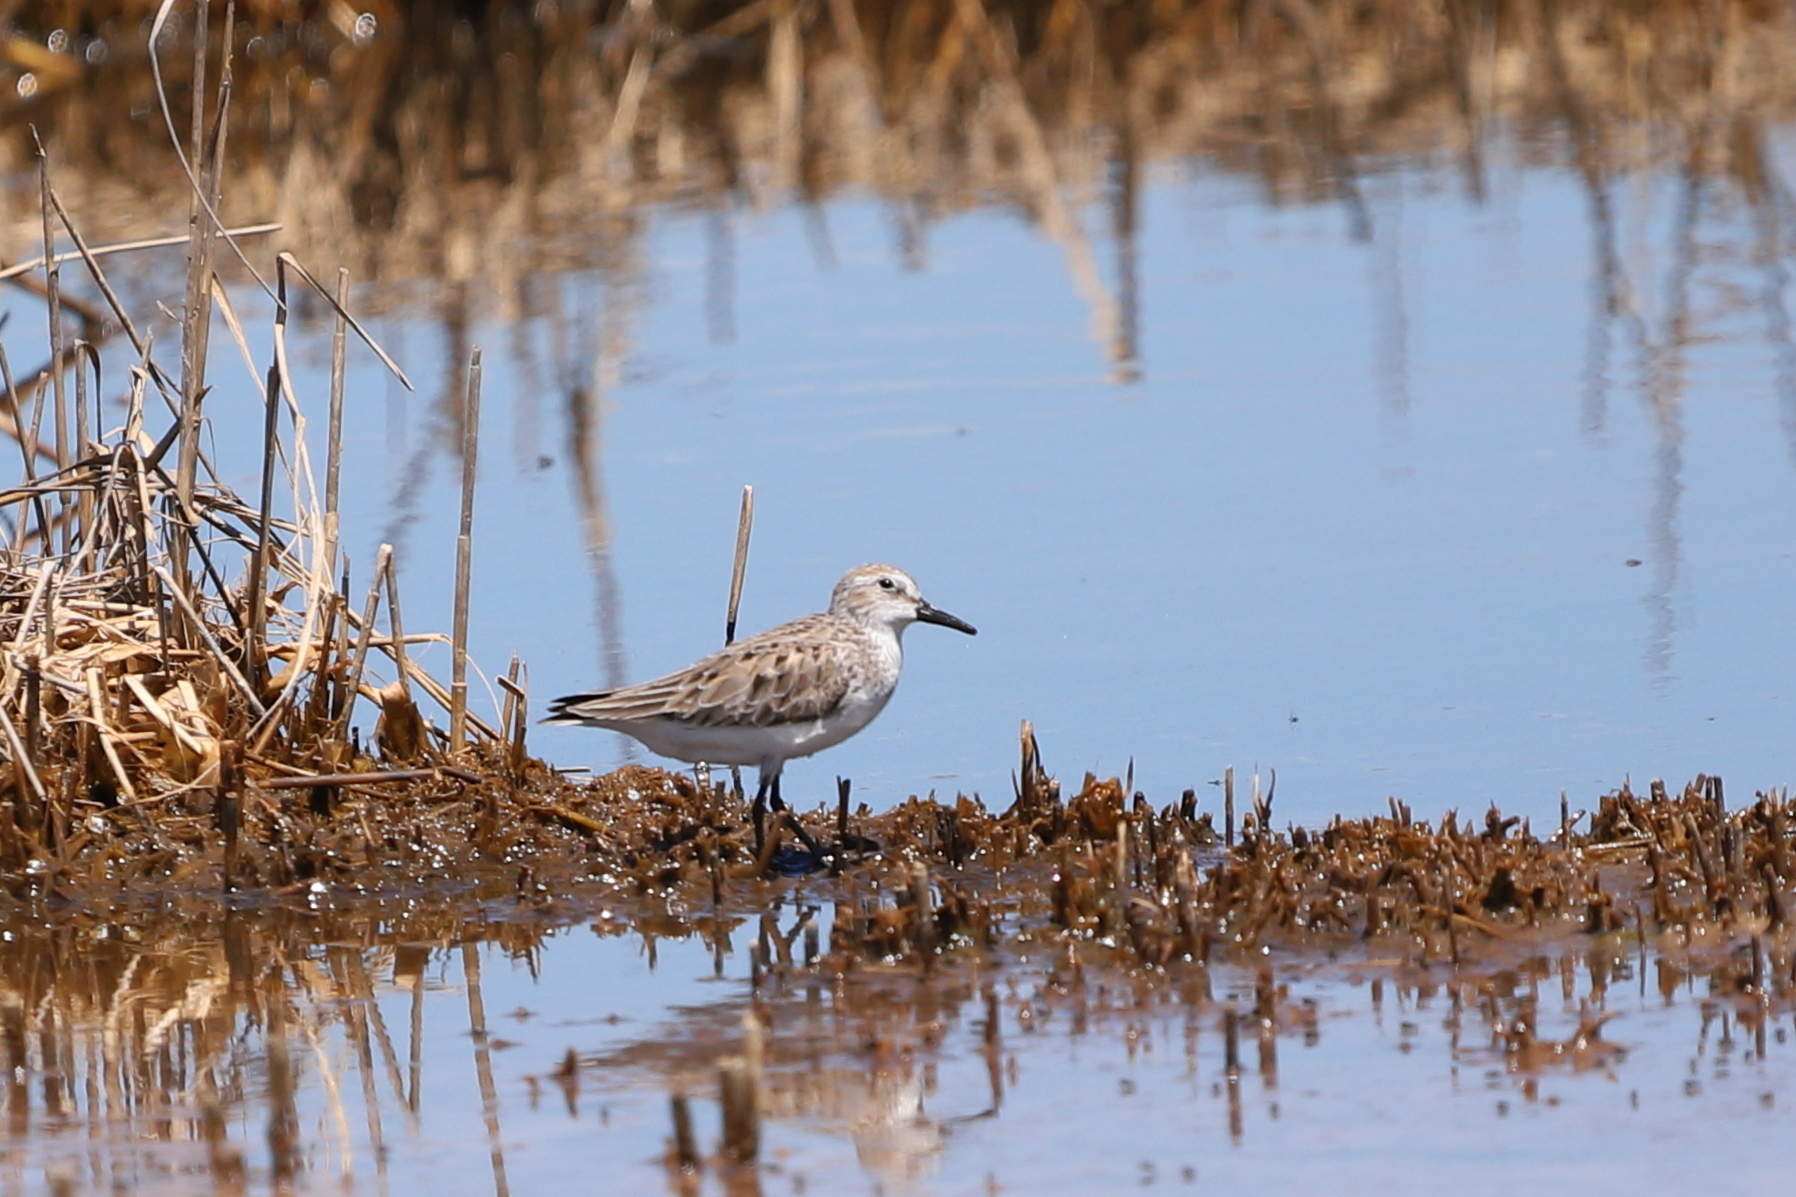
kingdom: Animalia
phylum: Chordata
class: Aves
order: Charadriiformes
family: Scolopacidae
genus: Calidris
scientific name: Calidris pusilla
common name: Semipalmated sandpiper
